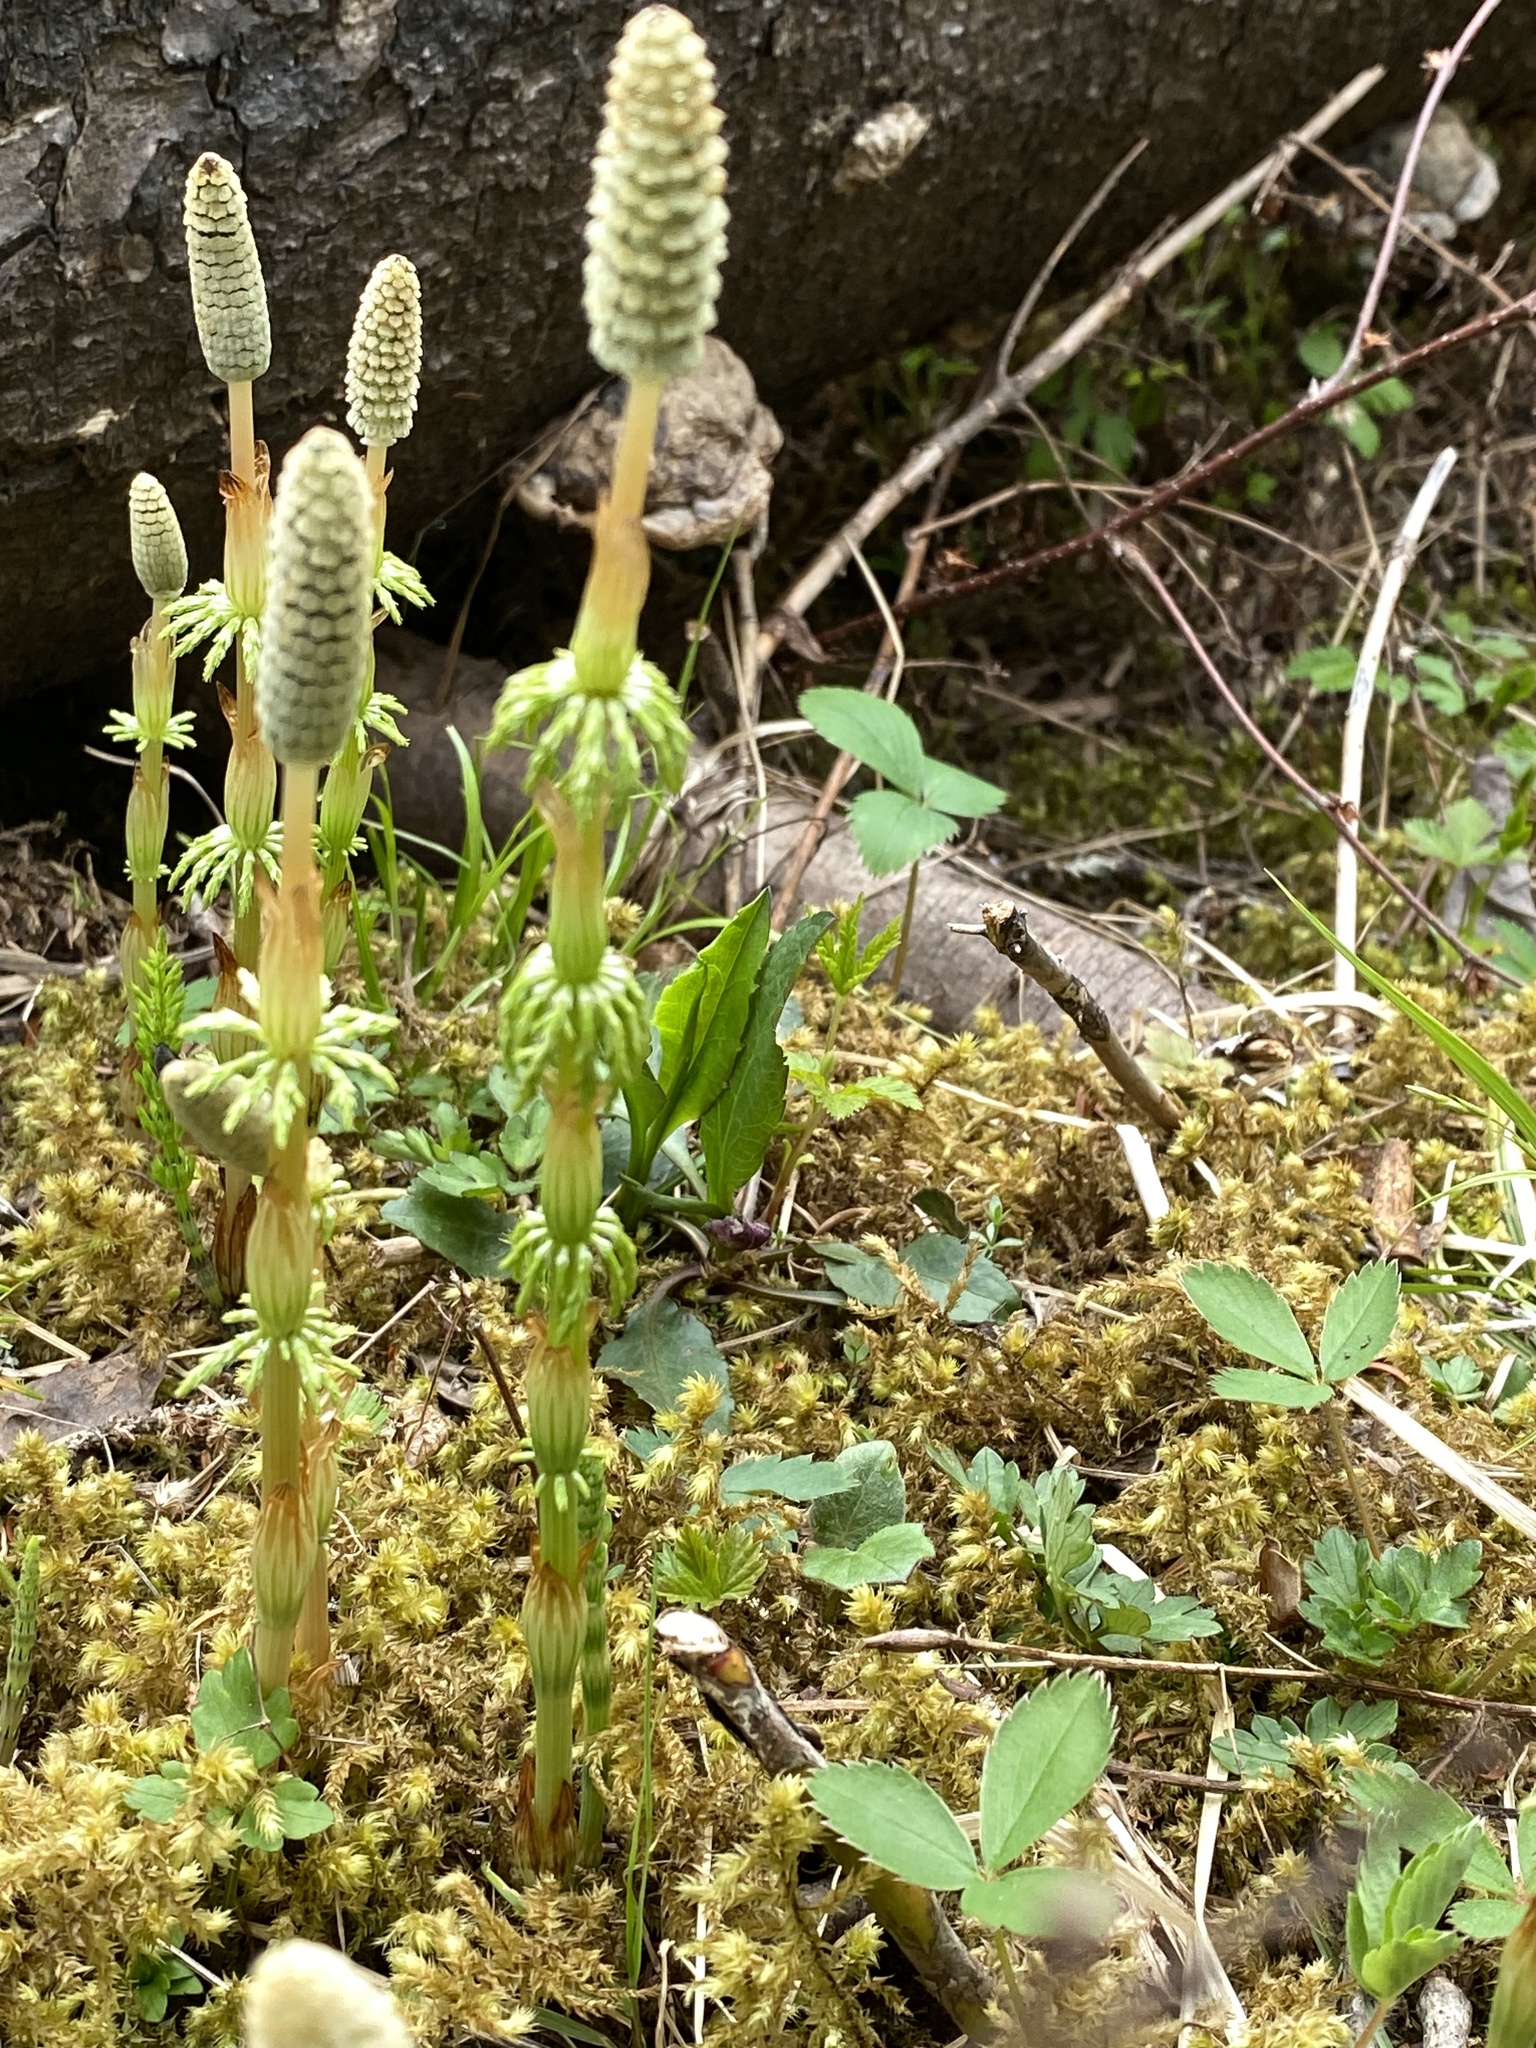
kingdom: Plantae
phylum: Tracheophyta
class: Polypodiopsida
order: Equisetales
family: Equisetaceae
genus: Equisetum
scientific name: Equisetum sylvaticum
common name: Wood horsetail
